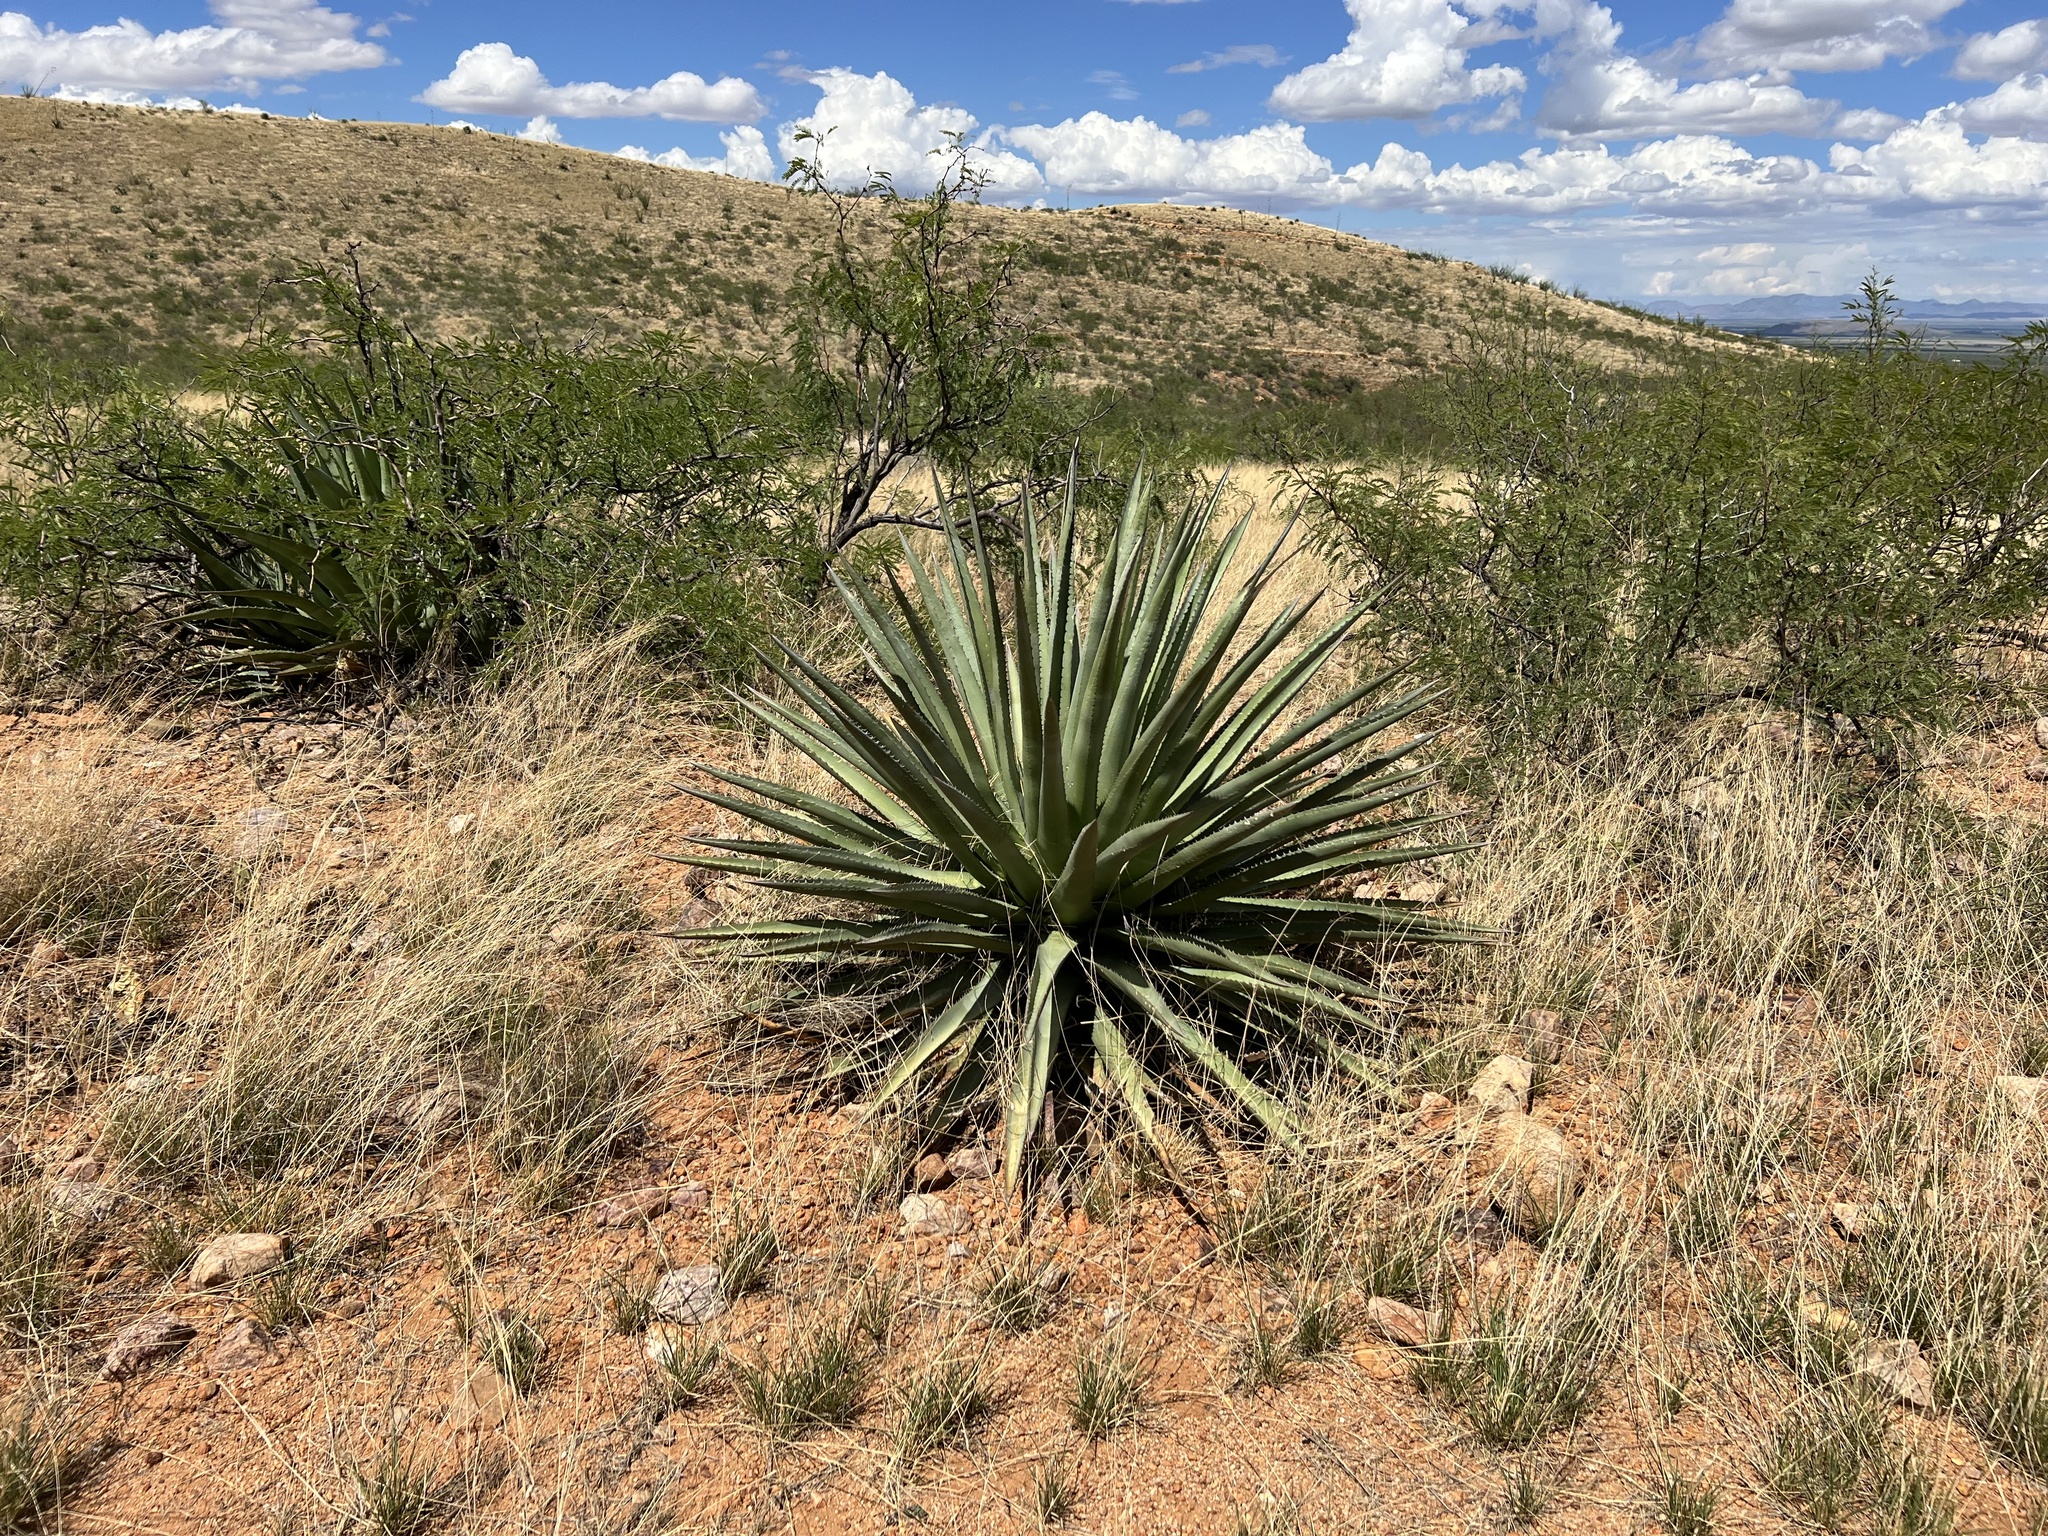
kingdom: Plantae
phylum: Tracheophyta
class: Liliopsida
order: Asparagales
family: Asparagaceae
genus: Agave
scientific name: Agave palmeri
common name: Palmer agave
